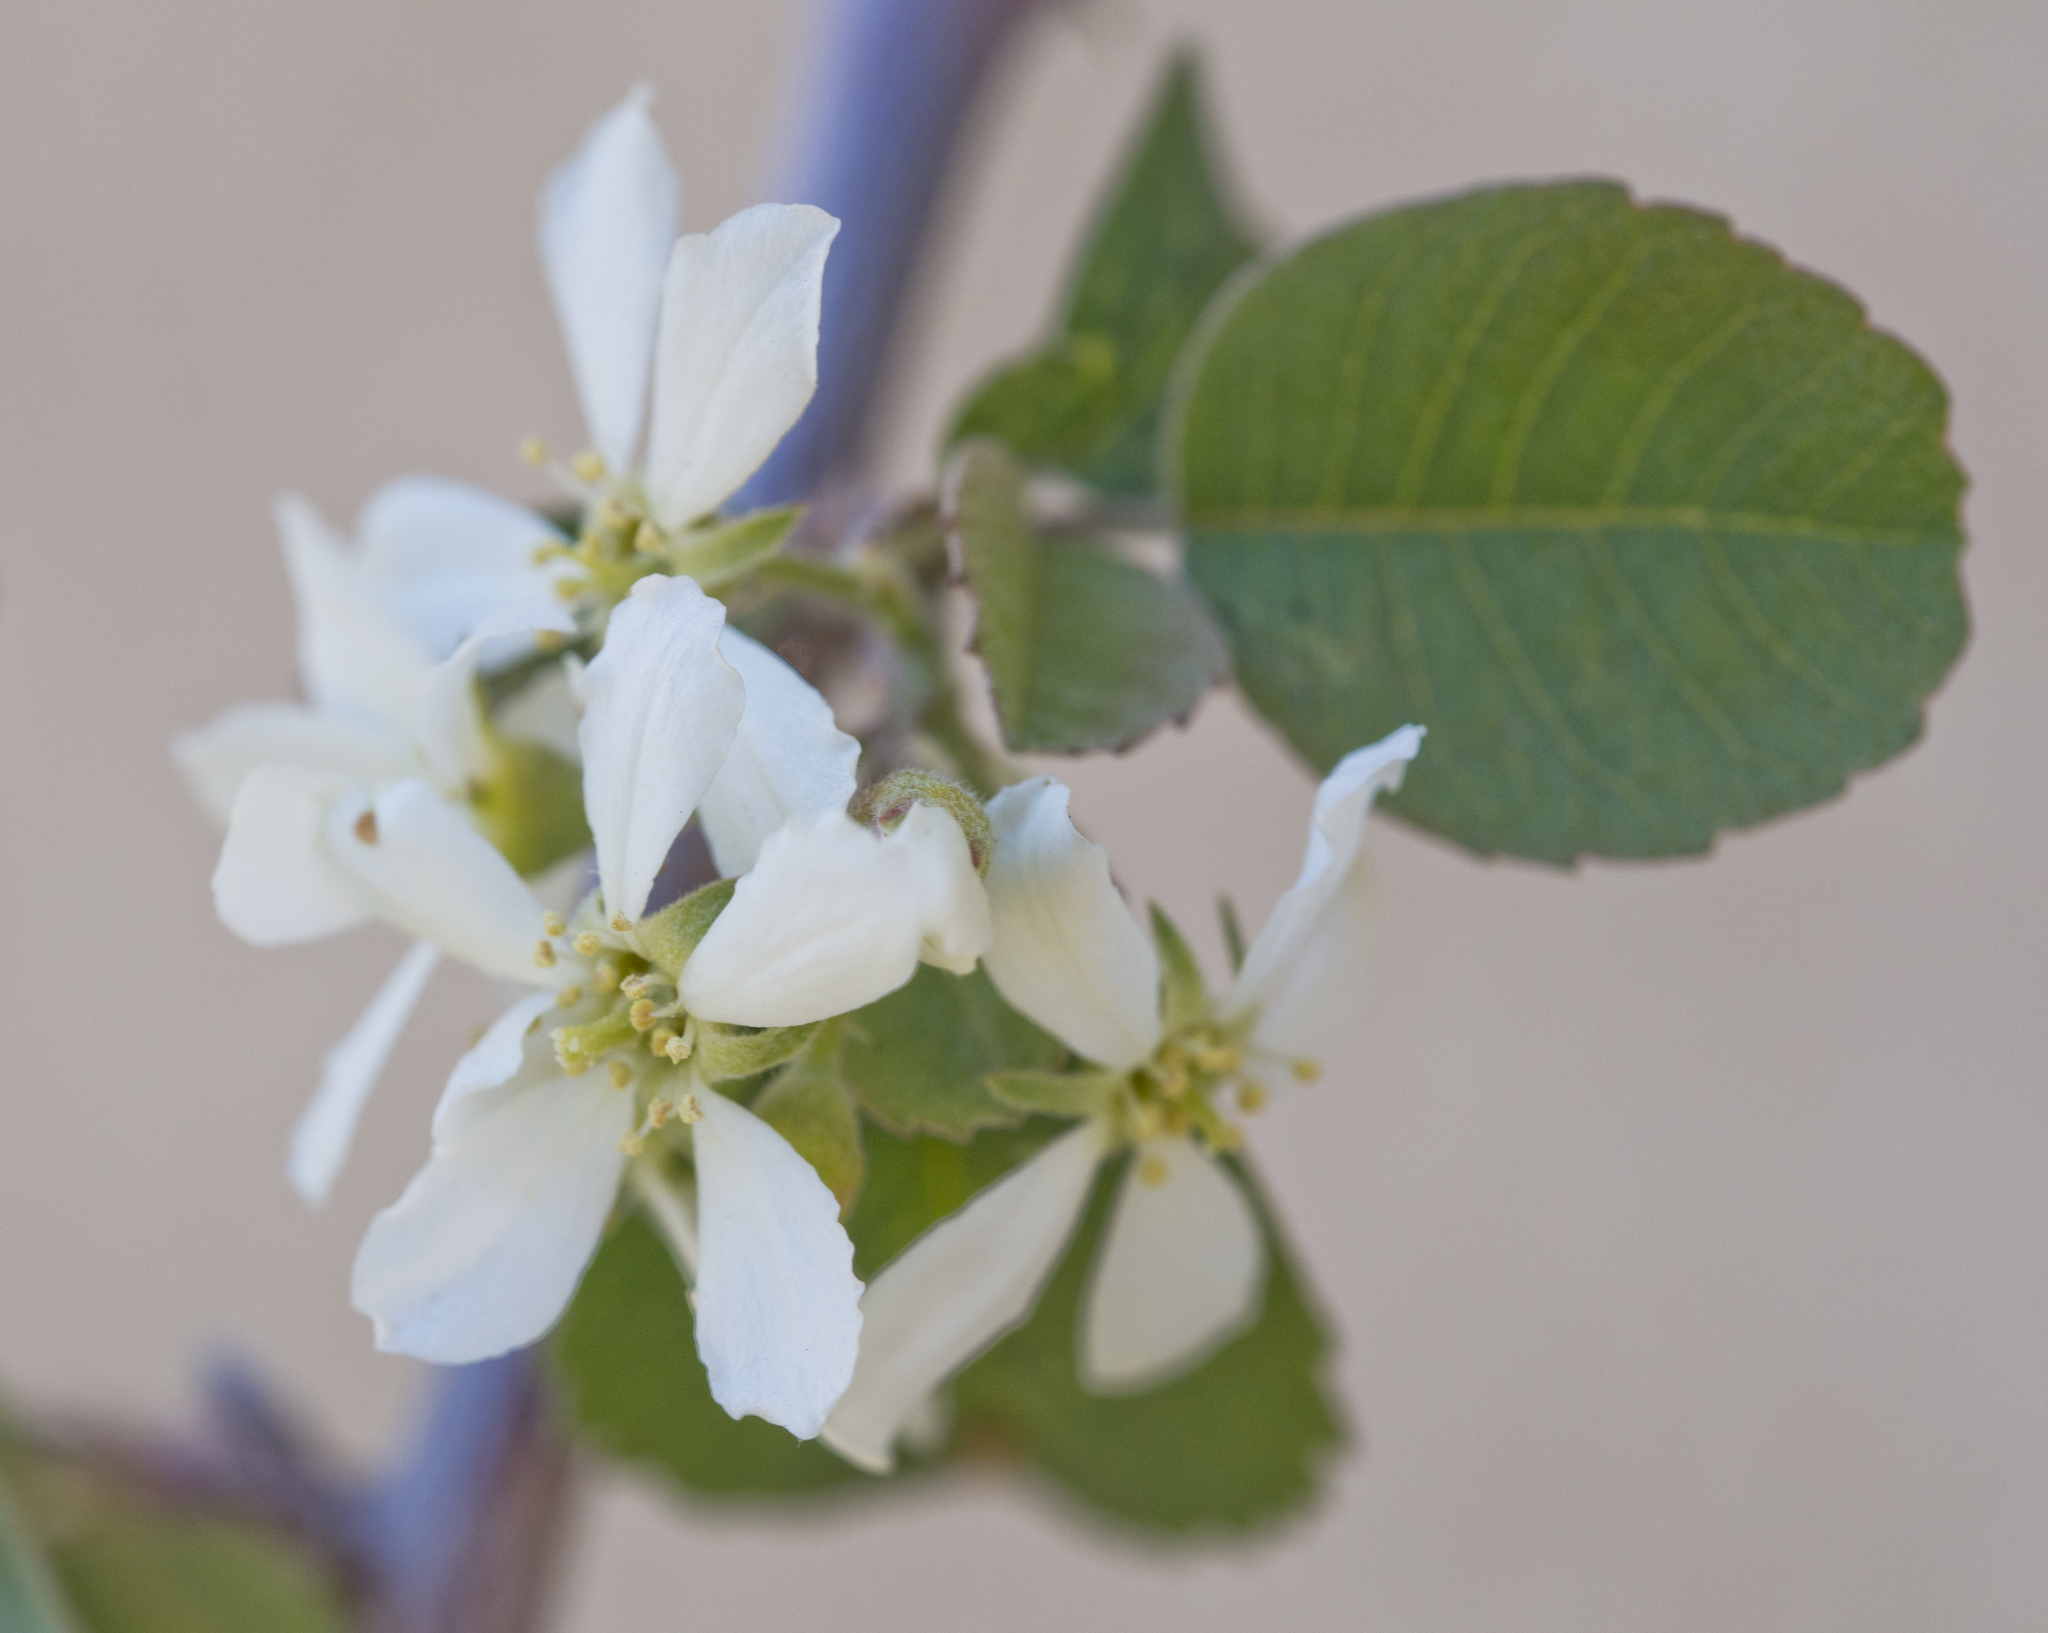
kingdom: Plantae
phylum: Tracheophyta
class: Magnoliopsida
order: Rosales
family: Rosaceae
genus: Amelanchier
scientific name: Amelanchier utahensis
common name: Utah serviceberry
